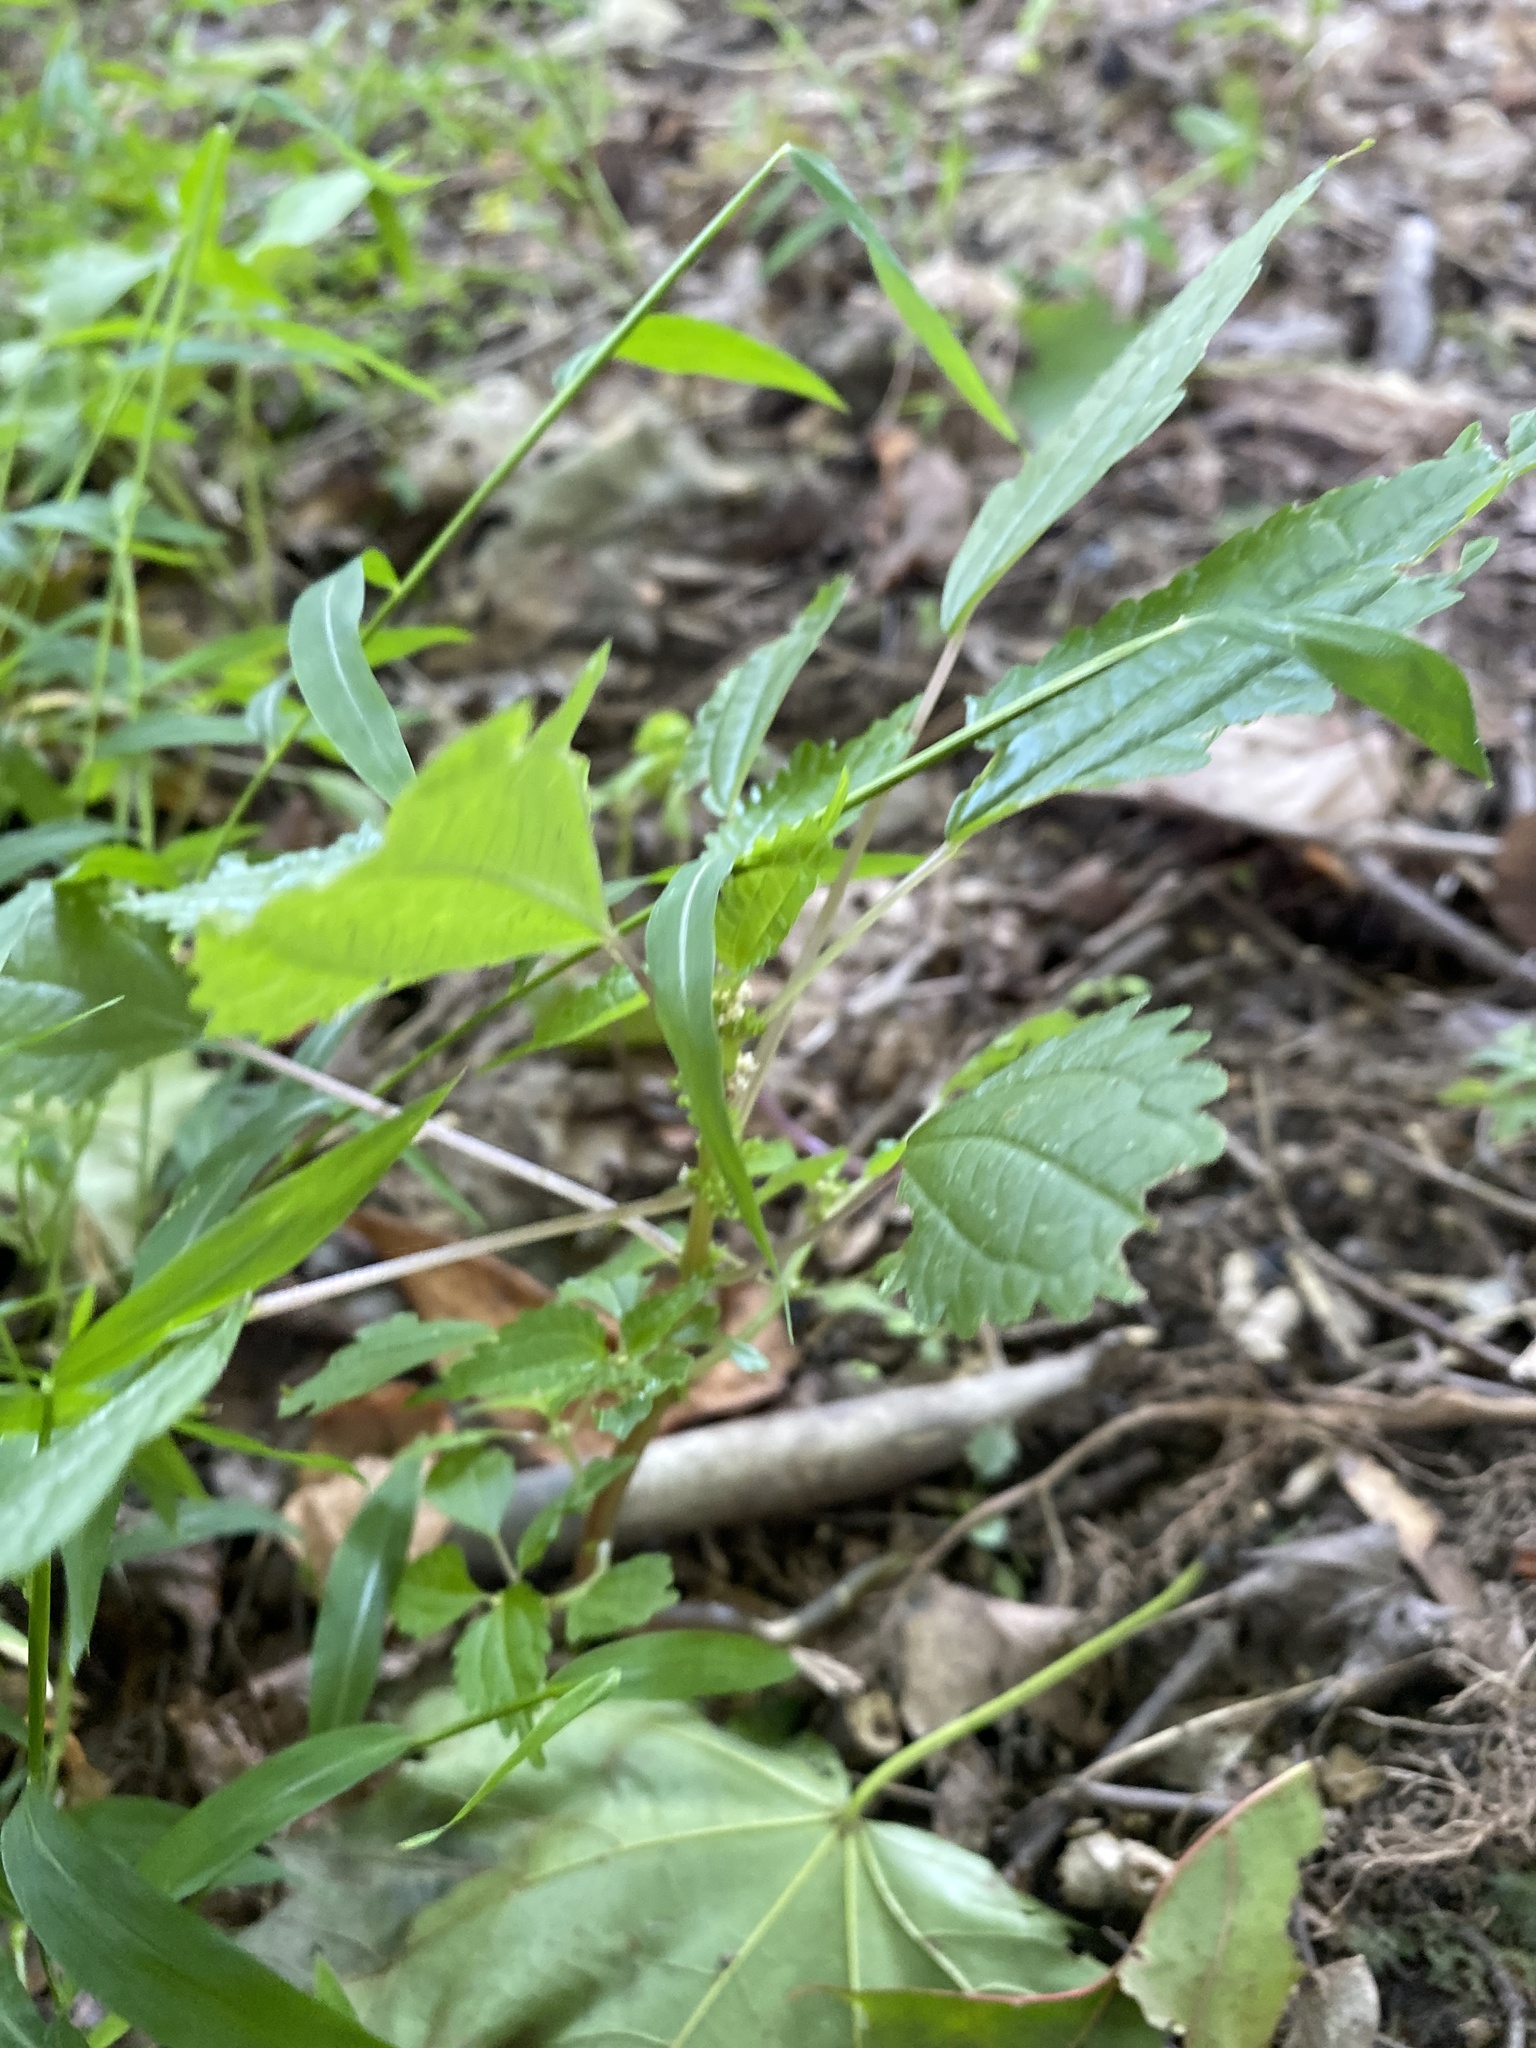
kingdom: Plantae
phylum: Tracheophyta
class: Magnoliopsida
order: Rosales
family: Urticaceae
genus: Pilea
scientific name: Pilea pumila
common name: Clearweed
